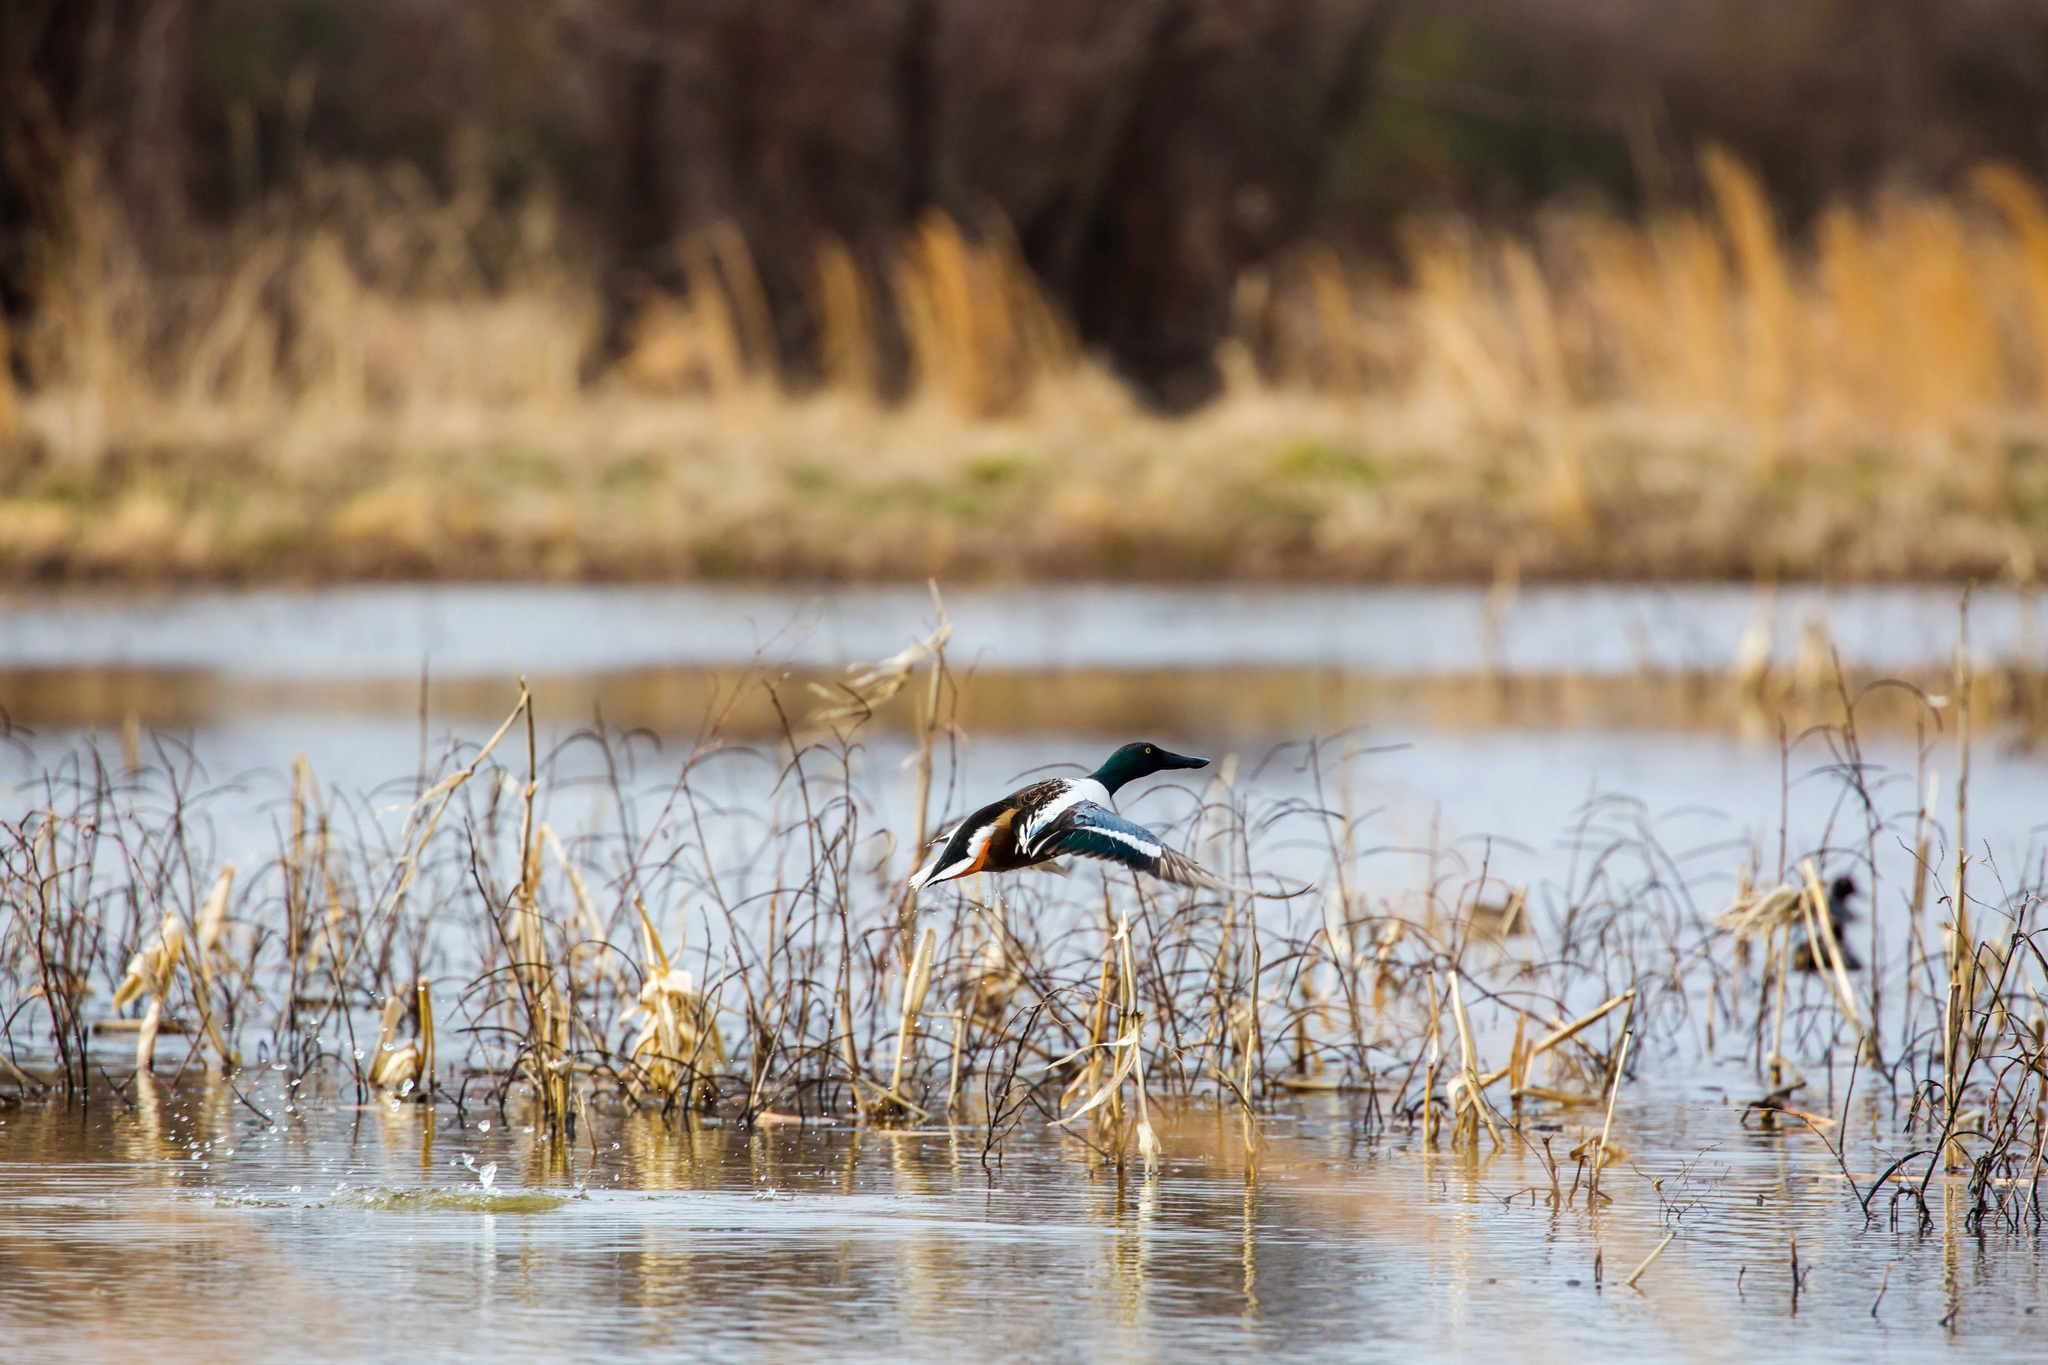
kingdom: Animalia
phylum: Chordata
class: Aves
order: Anseriformes
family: Anatidae
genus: Spatula
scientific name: Spatula clypeata
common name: Northern shoveler
